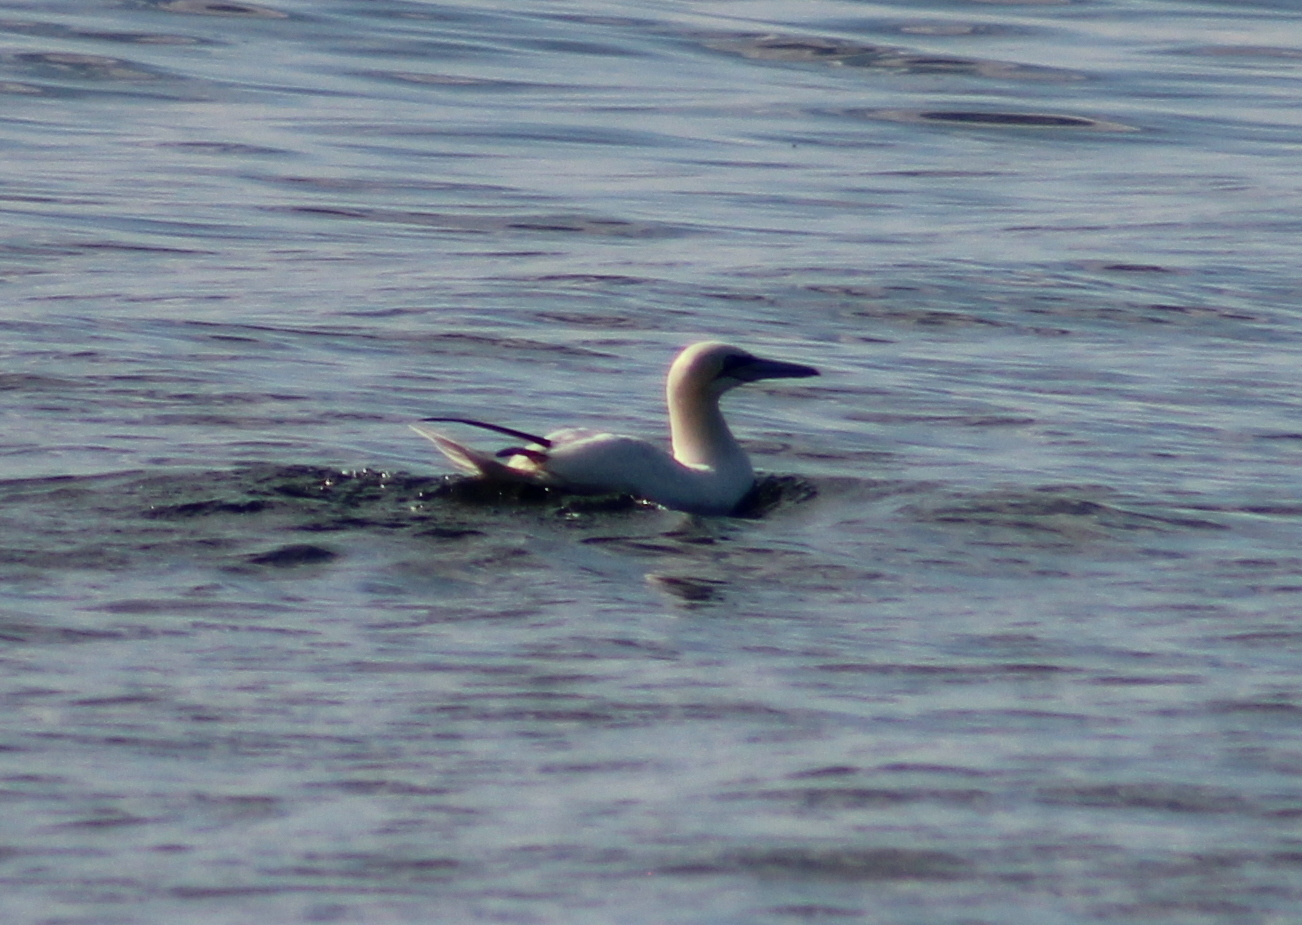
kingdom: Animalia
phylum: Chordata
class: Aves
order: Suliformes
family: Sulidae
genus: Morus
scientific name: Morus bassanus
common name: Northern gannet
